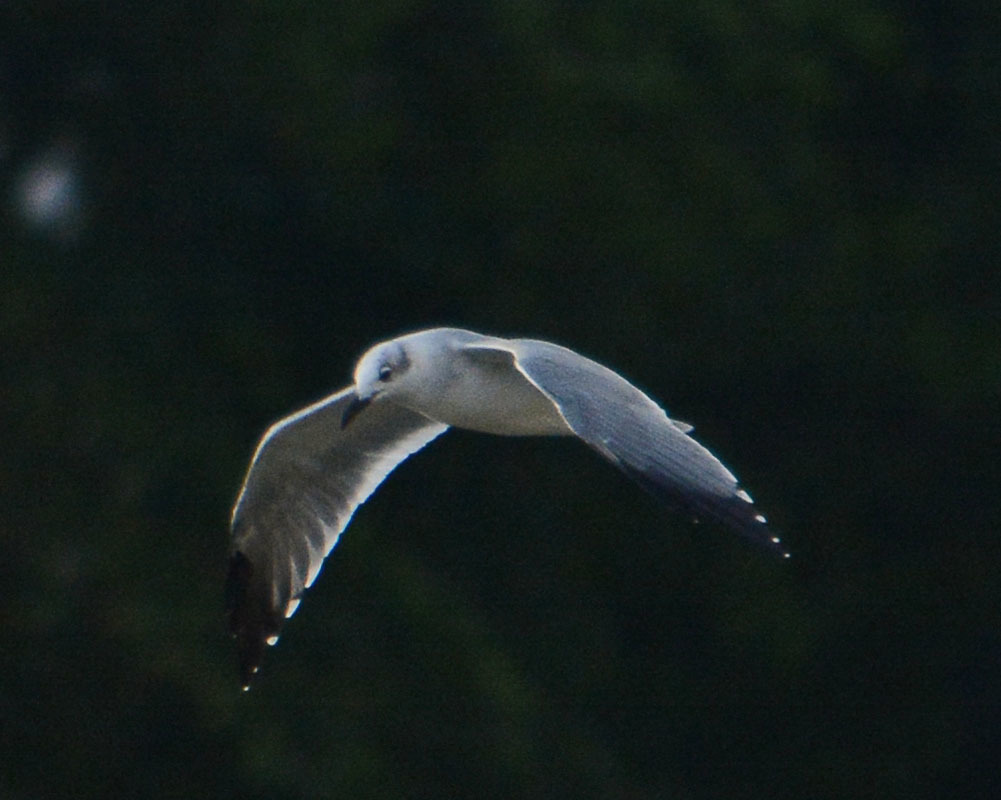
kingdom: Animalia
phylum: Chordata
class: Aves
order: Charadriiformes
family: Laridae
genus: Leucophaeus
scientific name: Leucophaeus atricilla
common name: Laughing gull
